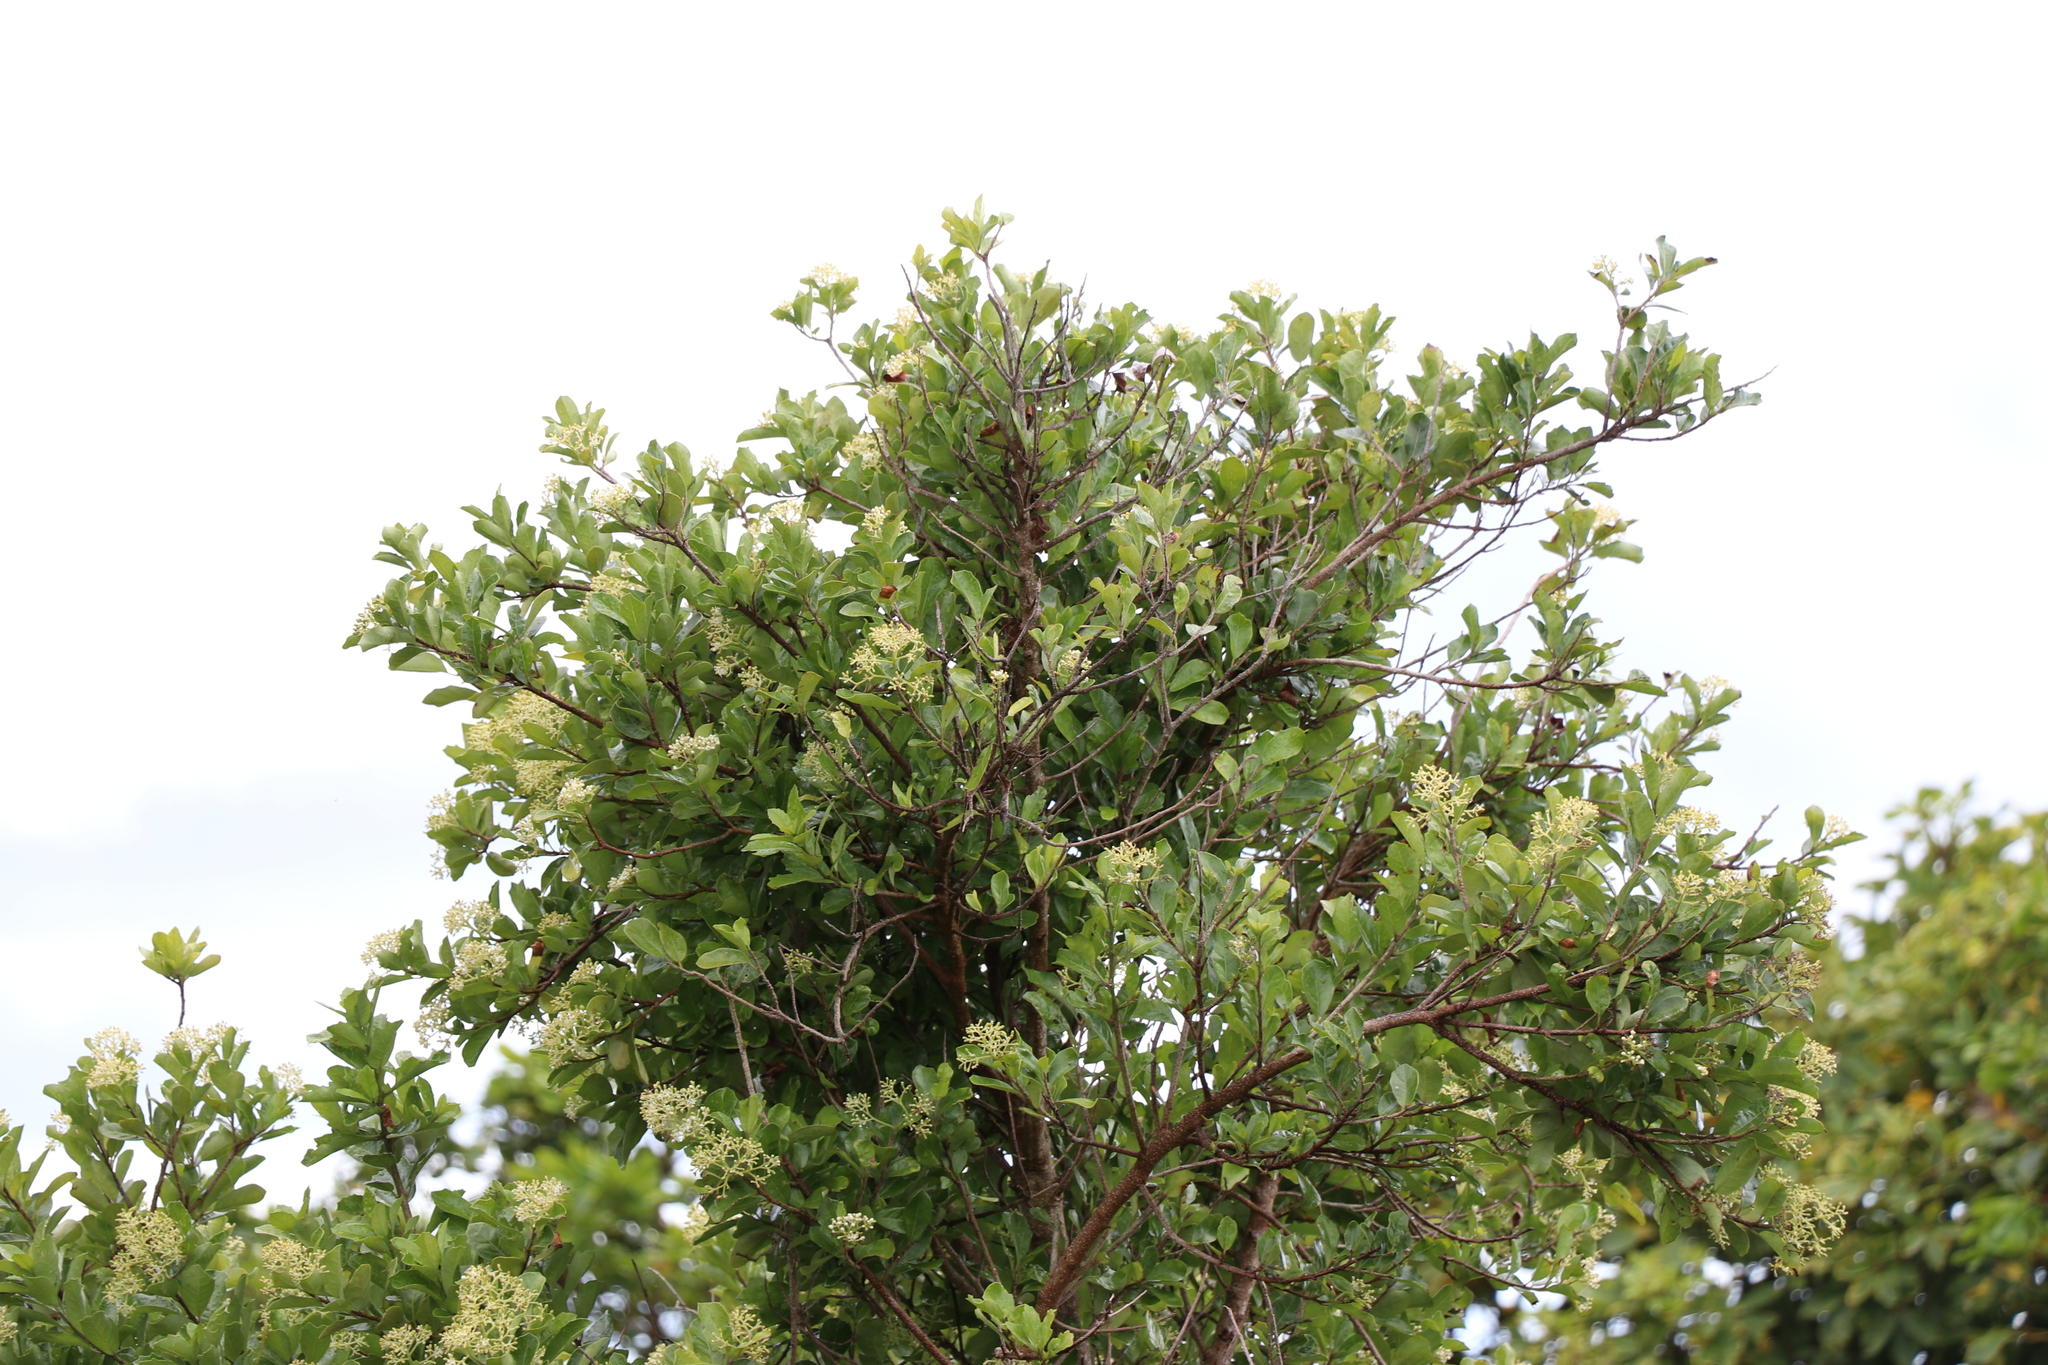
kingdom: Plantae
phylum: Tracheophyta
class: Magnoliopsida
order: Apiales
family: Pennantiaceae
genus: Pennantia
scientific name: Pennantia corymbosa
